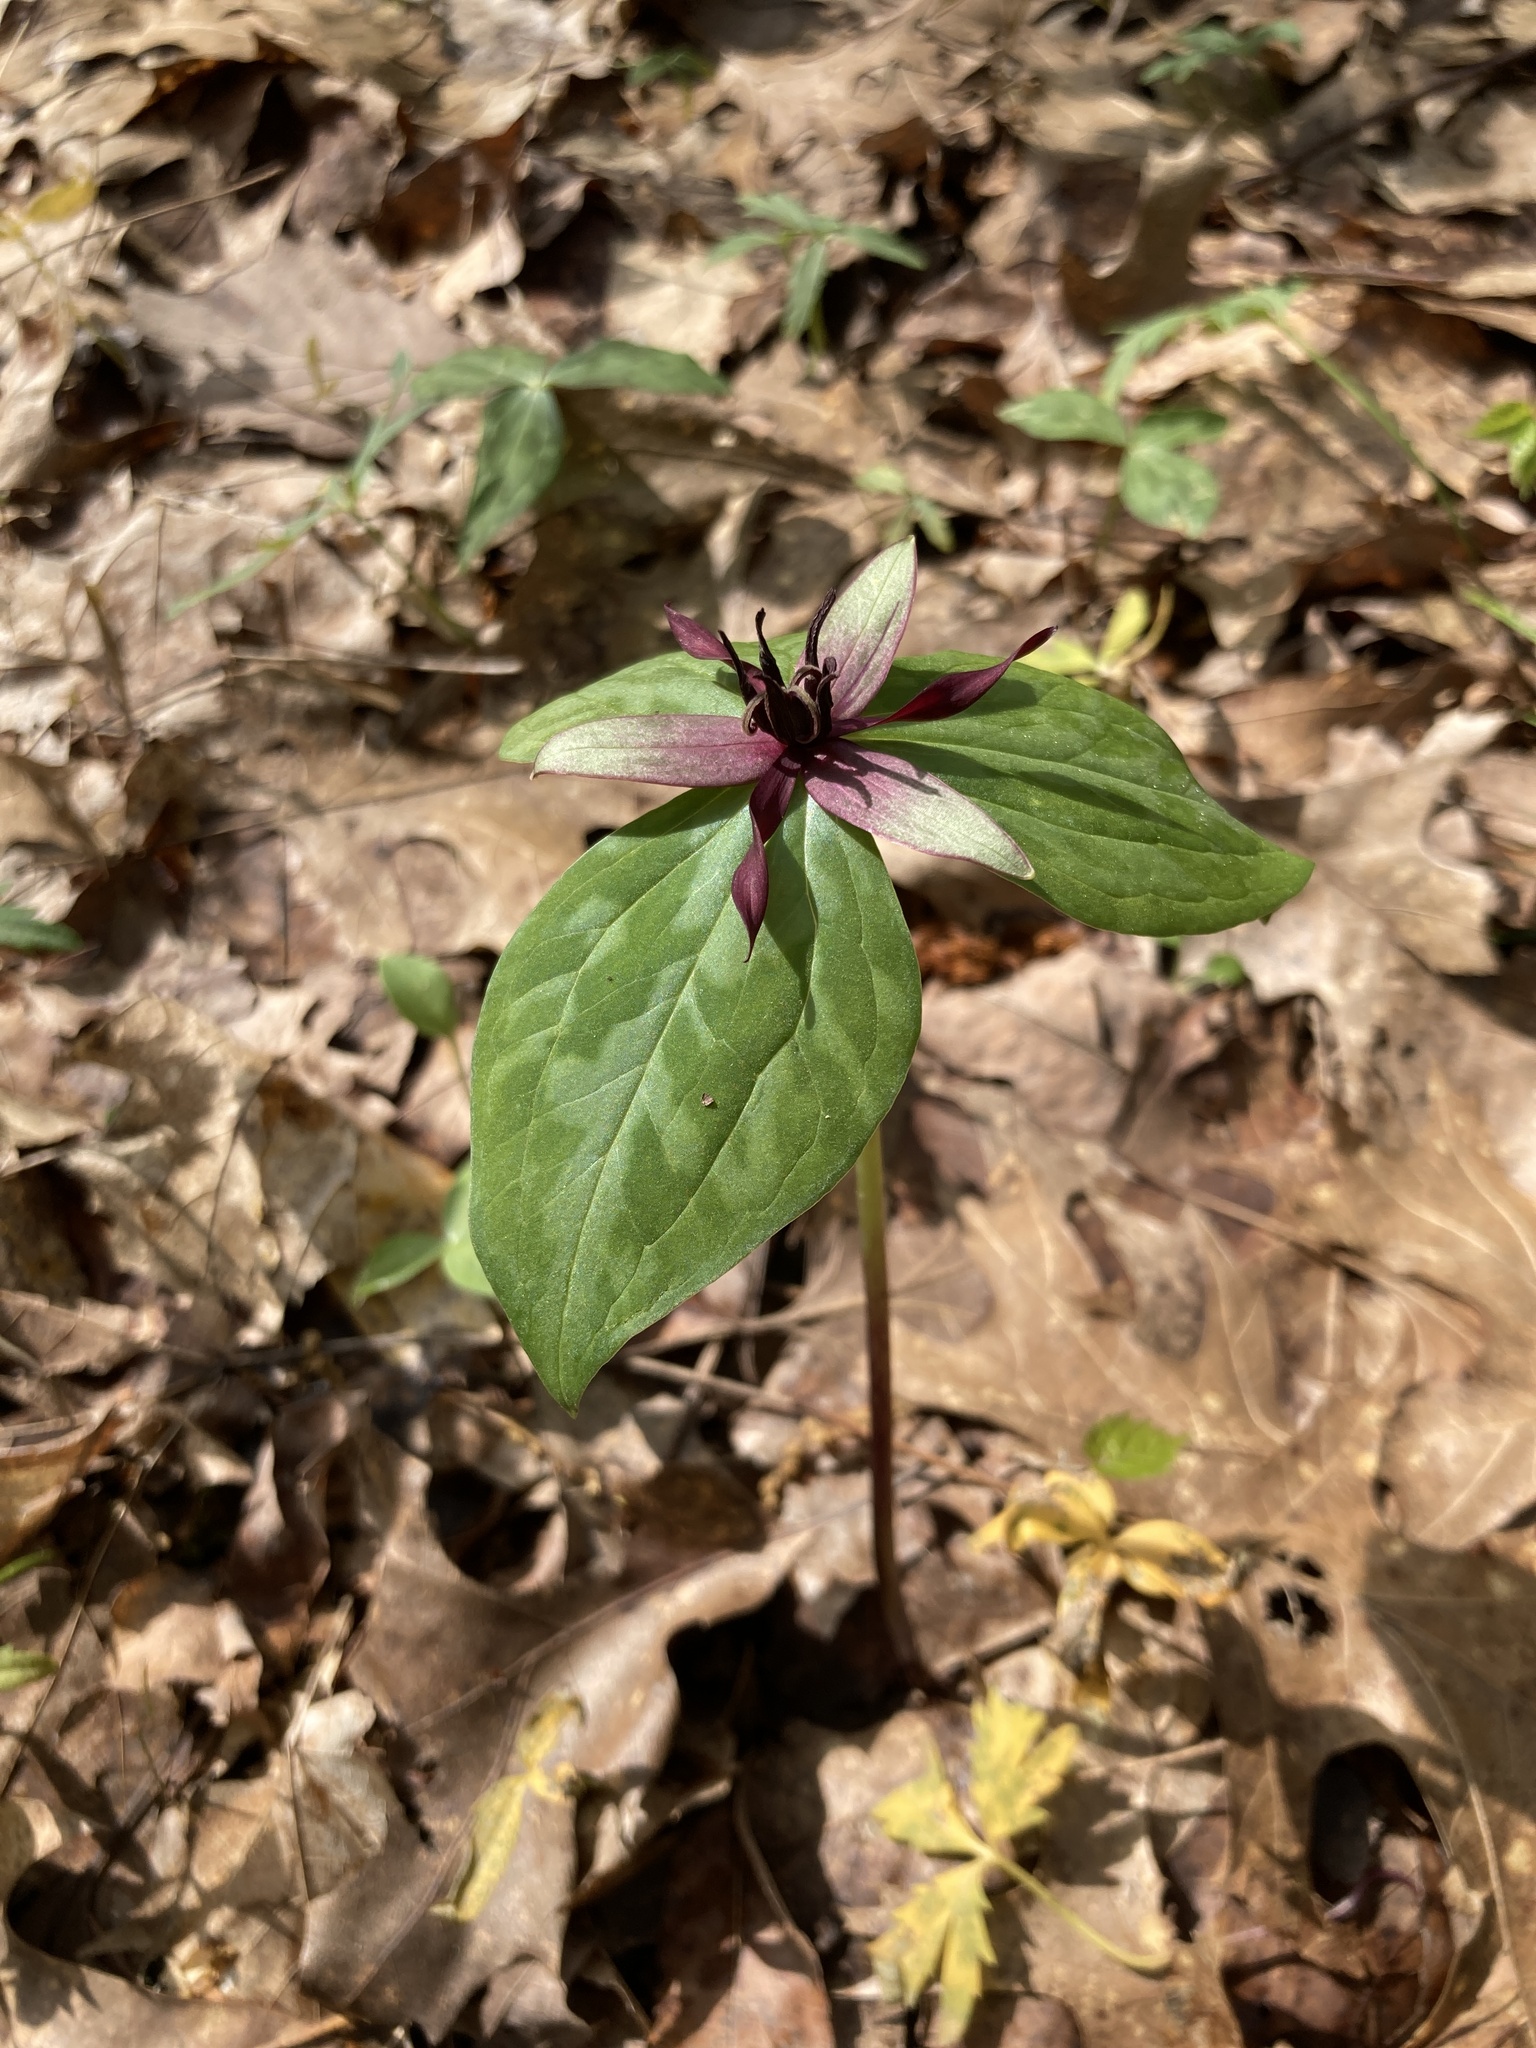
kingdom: Plantae
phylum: Tracheophyta
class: Liliopsida
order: Liliales
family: Melanthiaceae
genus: Trillium
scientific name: Trillium stamineum
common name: Blue ridge wakerobin
